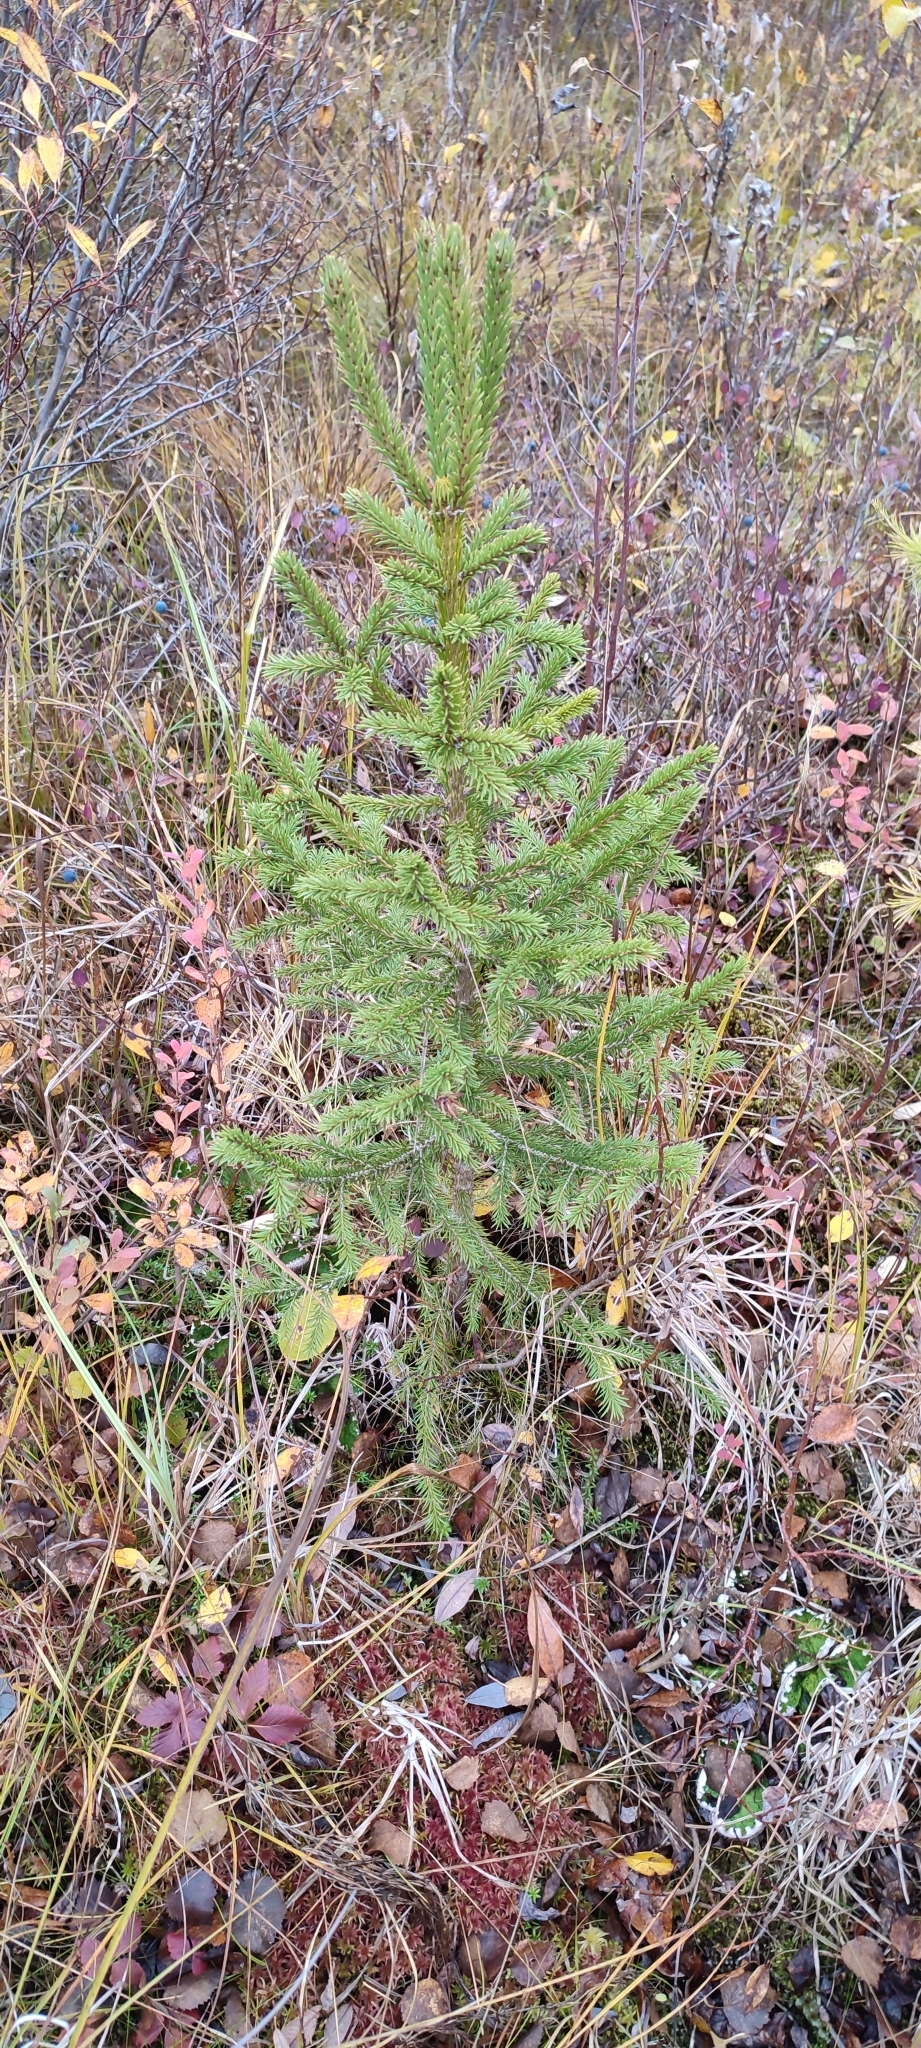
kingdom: Plantae
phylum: Tracheophyta
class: Pinopsida
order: Pinales
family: Pinaceae
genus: Picea
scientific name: Picea obovata
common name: Siberian spruce
